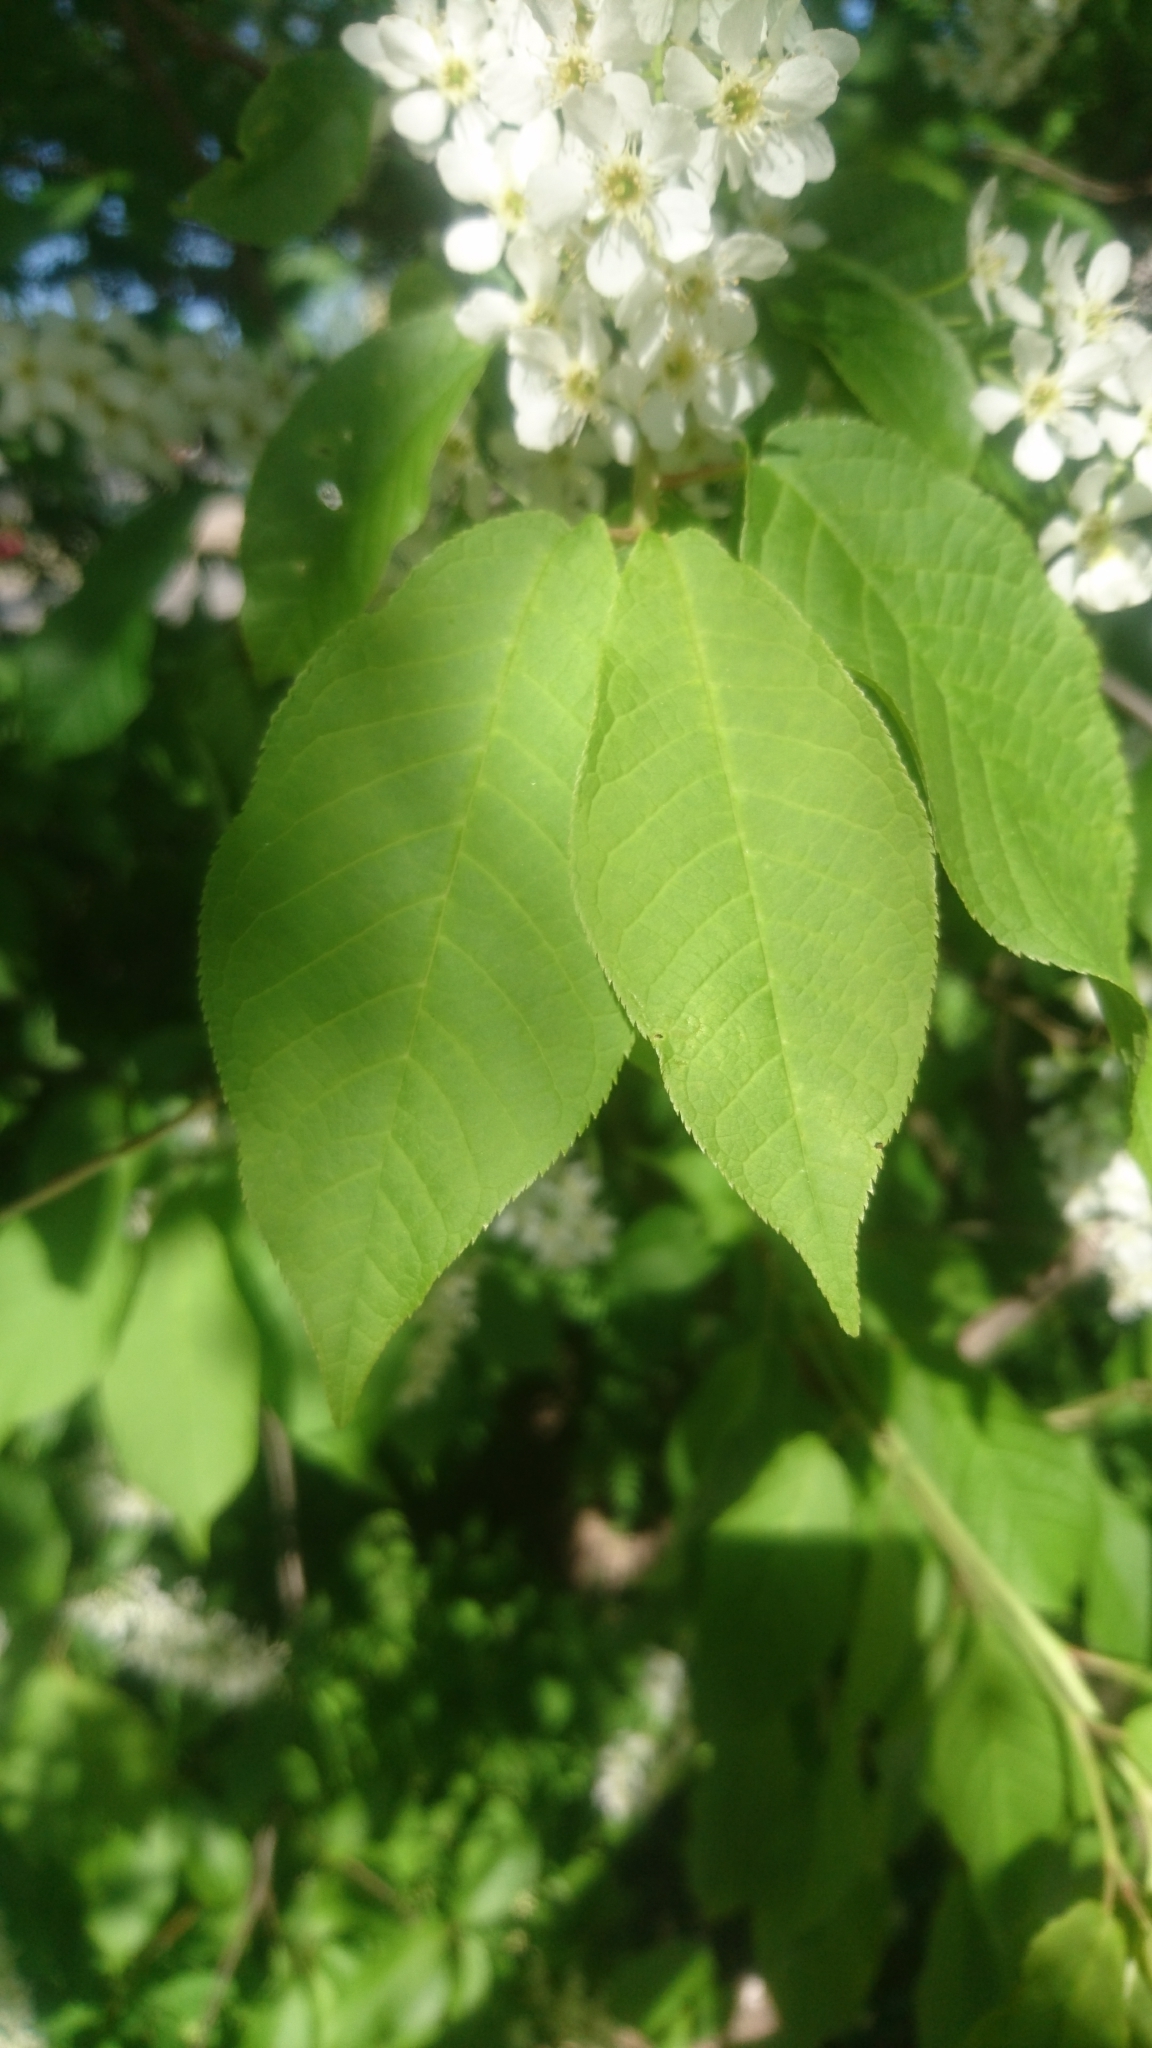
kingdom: Plantae
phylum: Tracheophyta
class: Magnoliopsida
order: Rosales
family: Rosaceae
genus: Prunus
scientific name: Prunus padus
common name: Bird cherry
